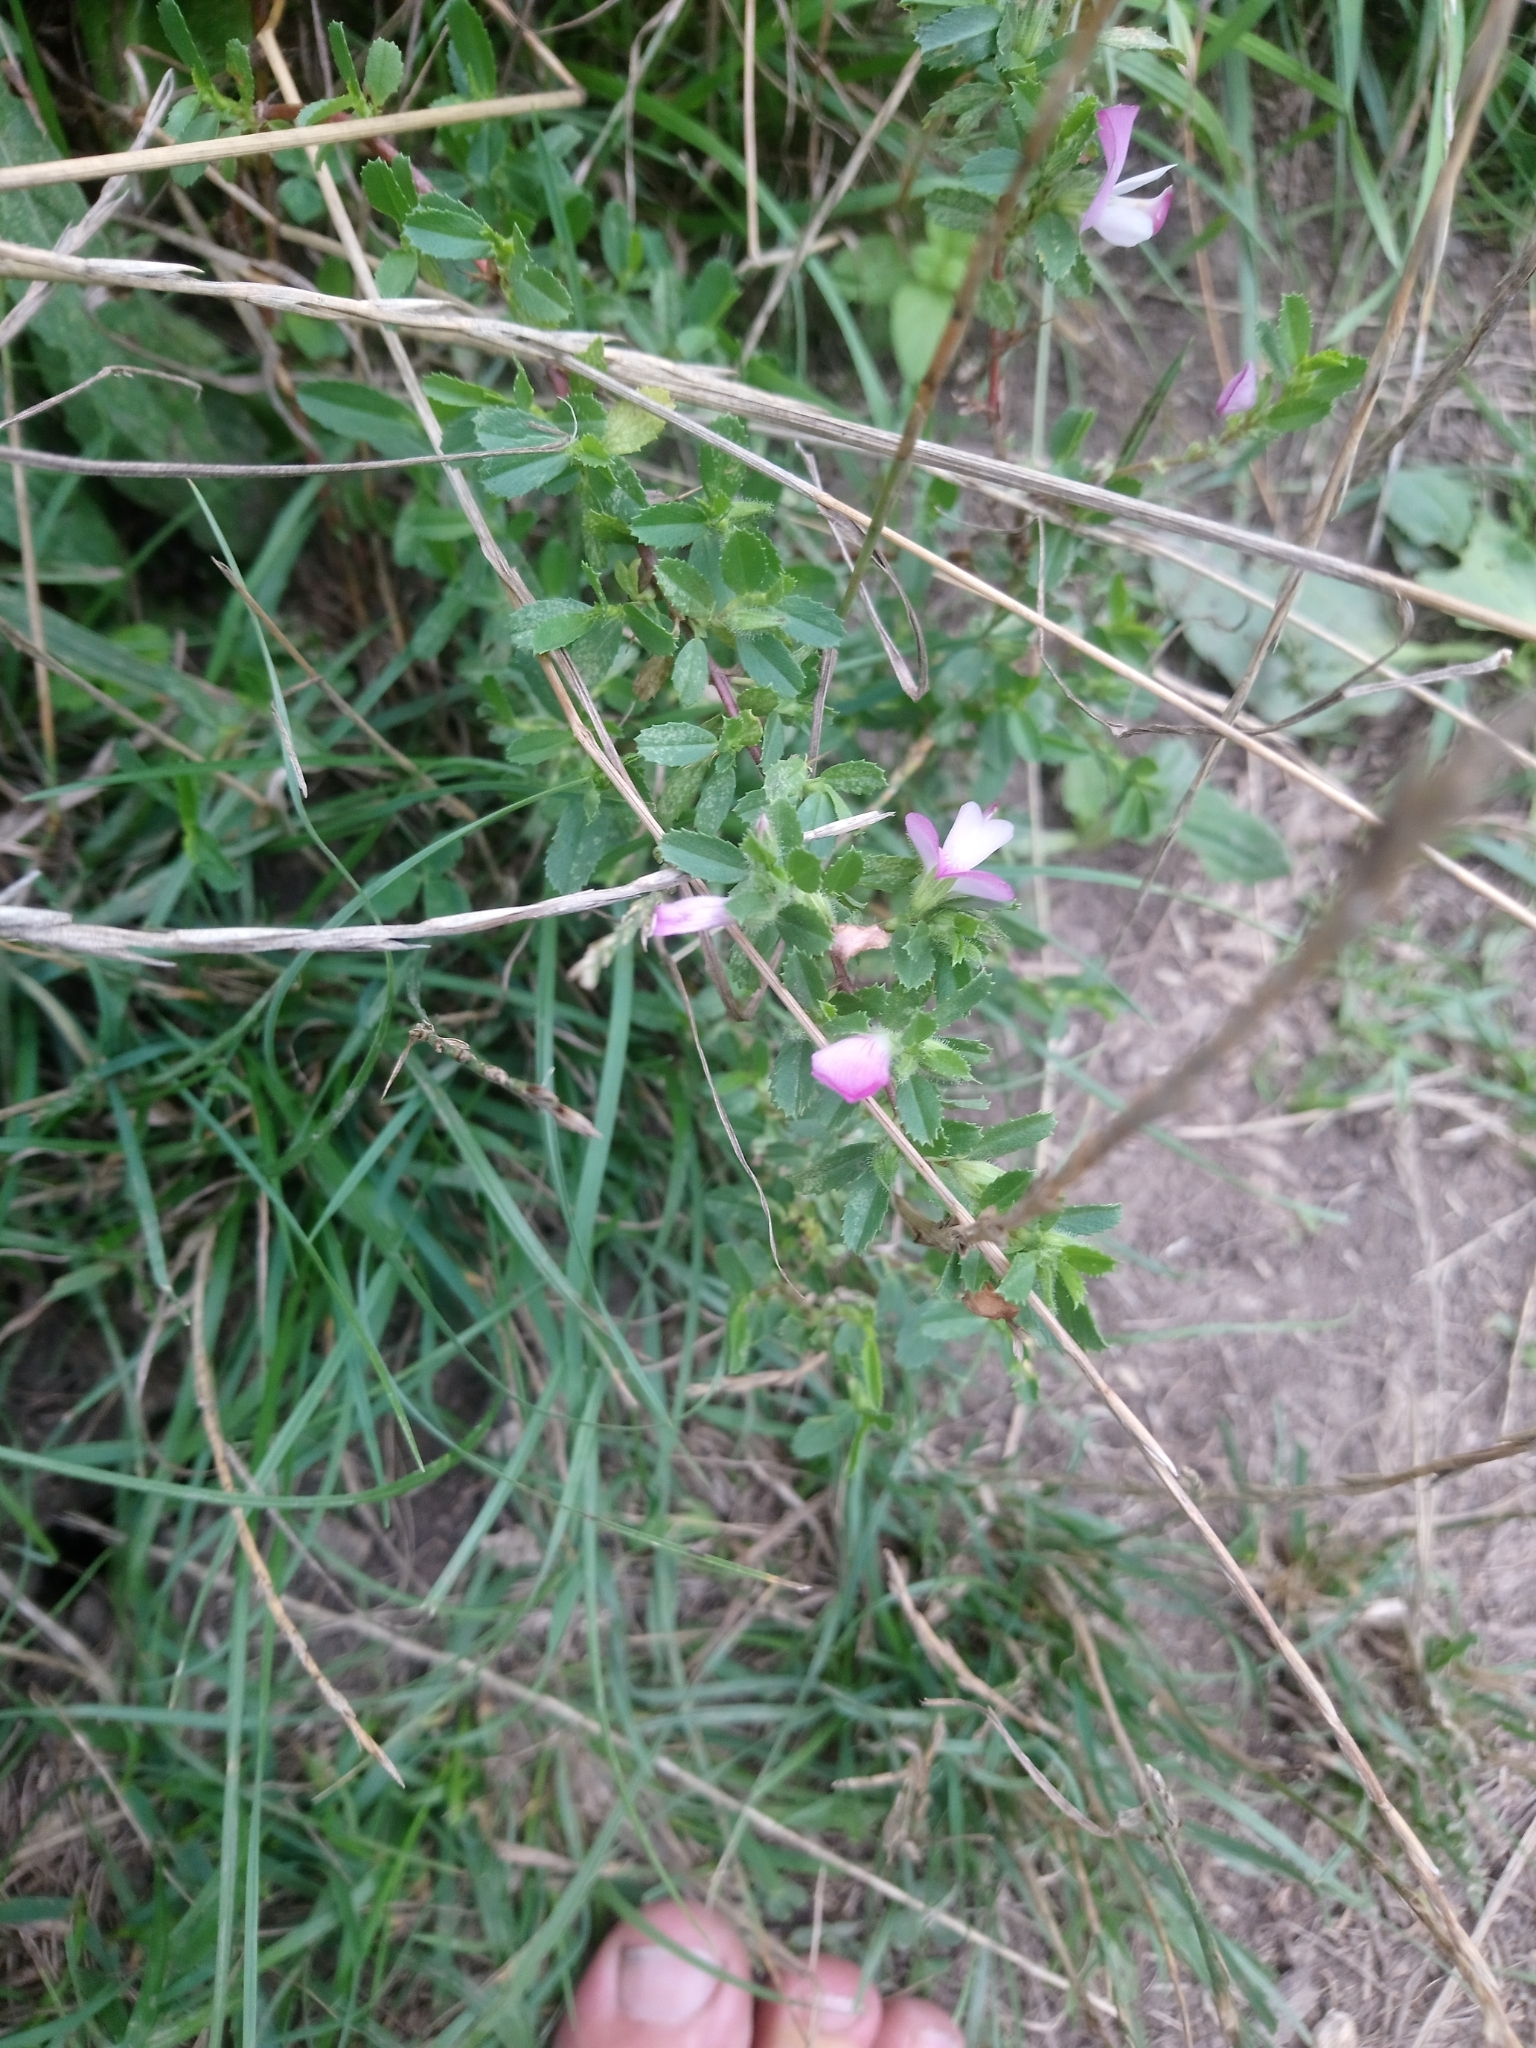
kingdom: Plantae
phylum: Tracheophyta
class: Magnoliopsida
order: Fabales
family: Fabaceae
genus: Ononis
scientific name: Ononis spinosa
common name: Spiny restharrow
